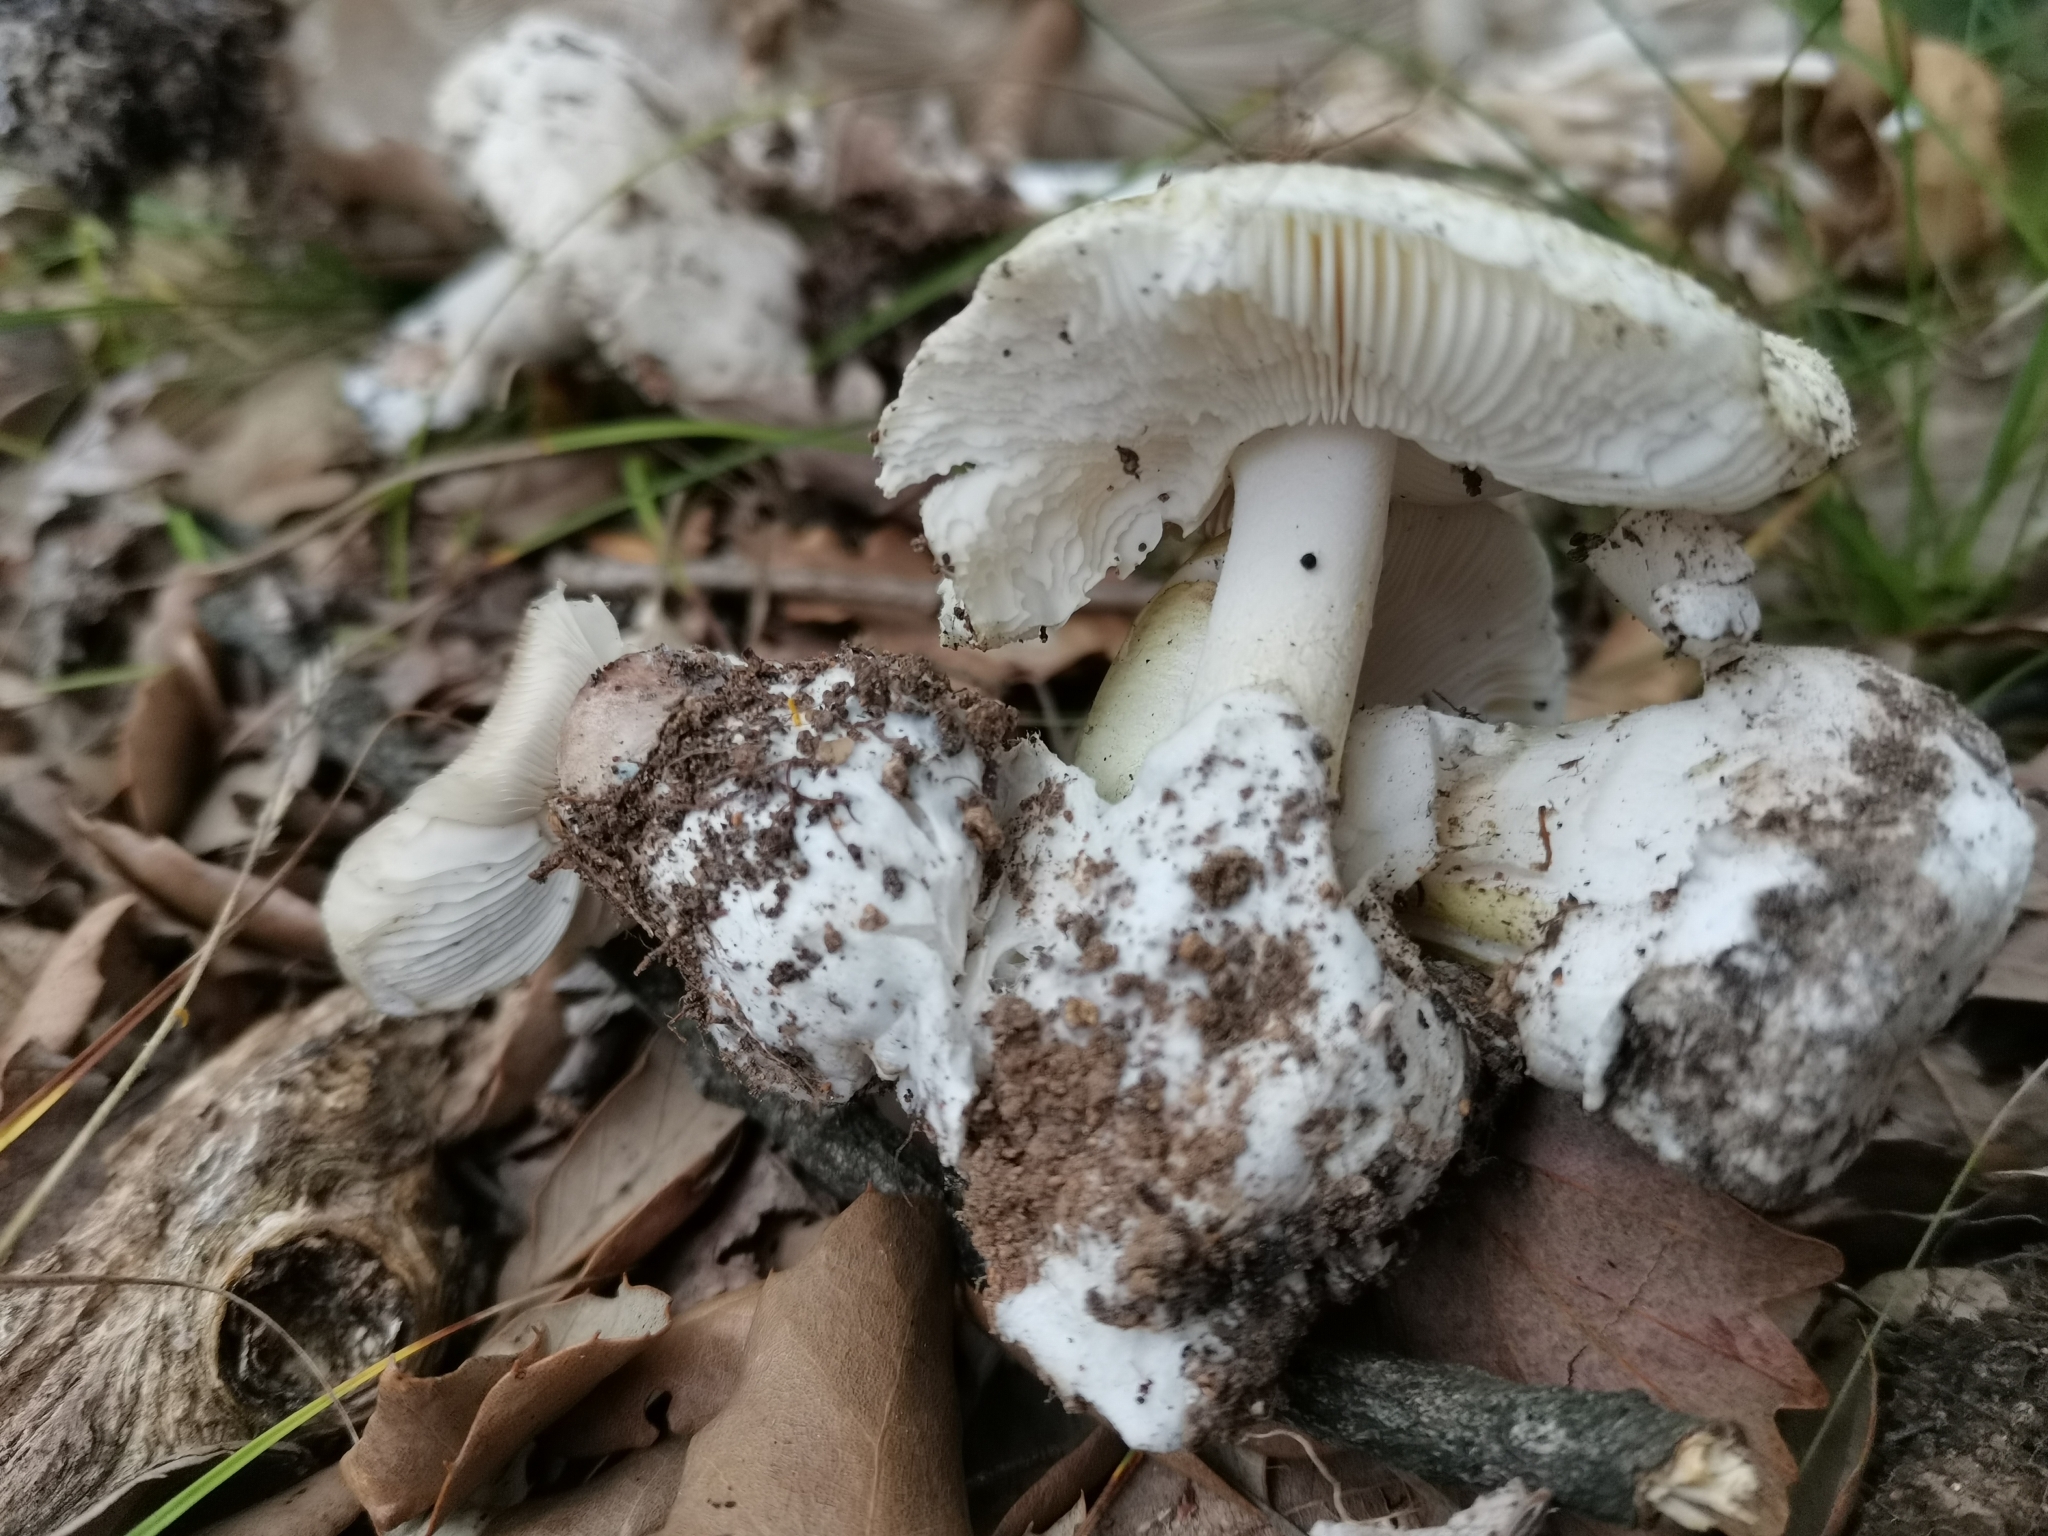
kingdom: Fungi
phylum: Basidiomycota
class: Agaricomycetes
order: Agaricales
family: Amanitaceae
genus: Amanita
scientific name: Amanita phalloides
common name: Death cap
